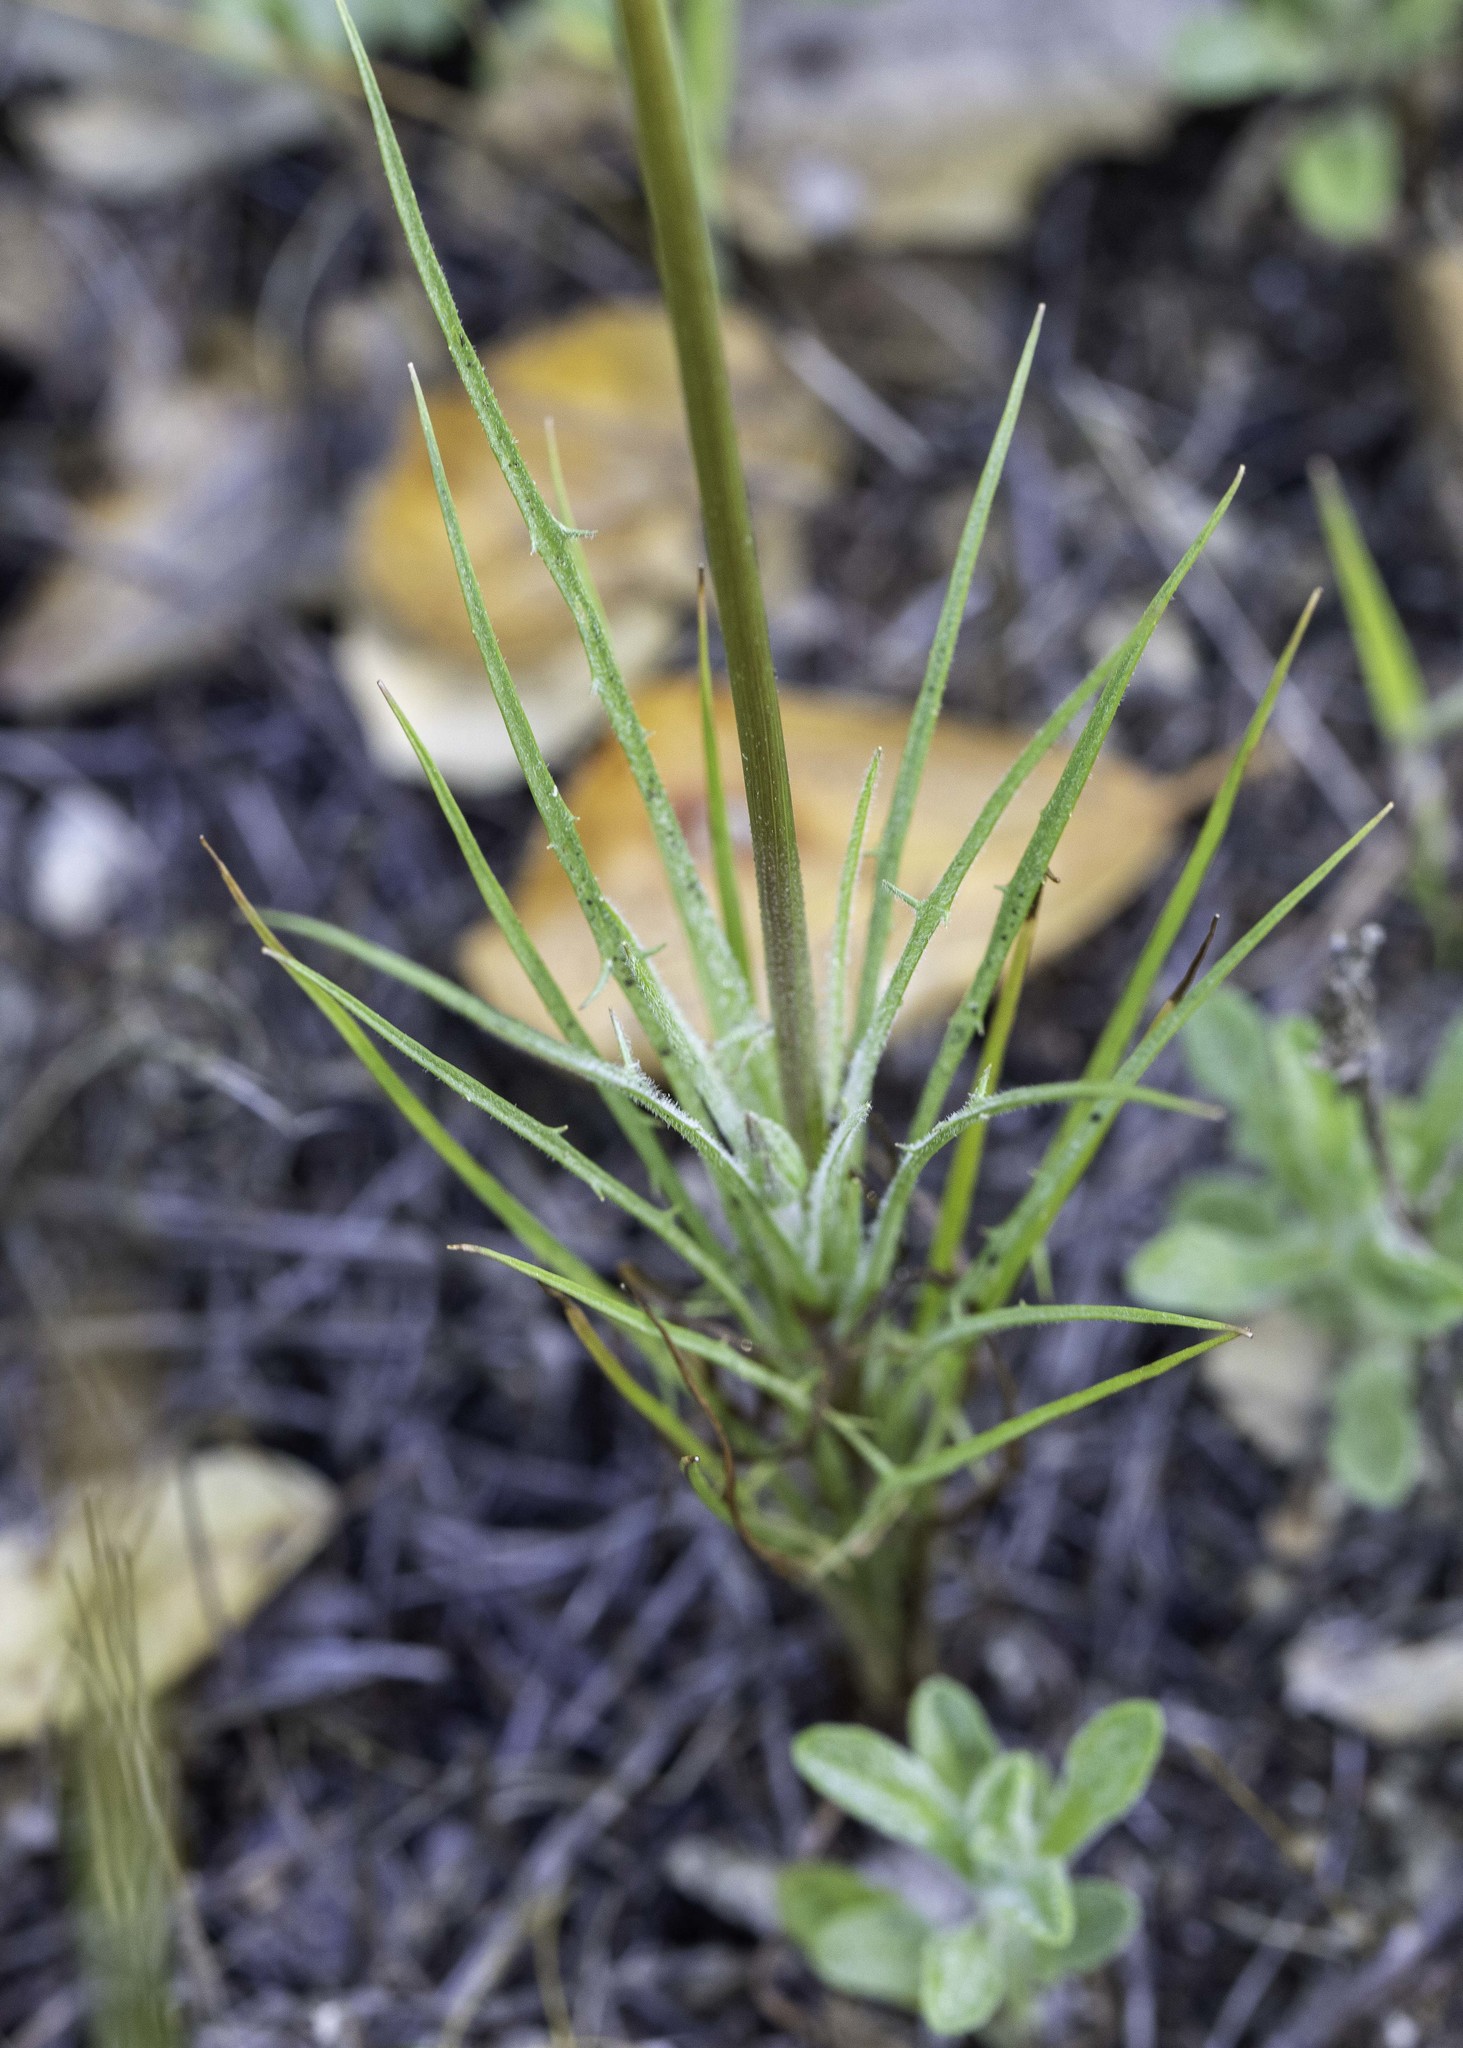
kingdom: Plantae
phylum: Tracheophyta
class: Magnoliopsida
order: Asterales
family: Asteraceae
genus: Microseris
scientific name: Microseris lindleyi
